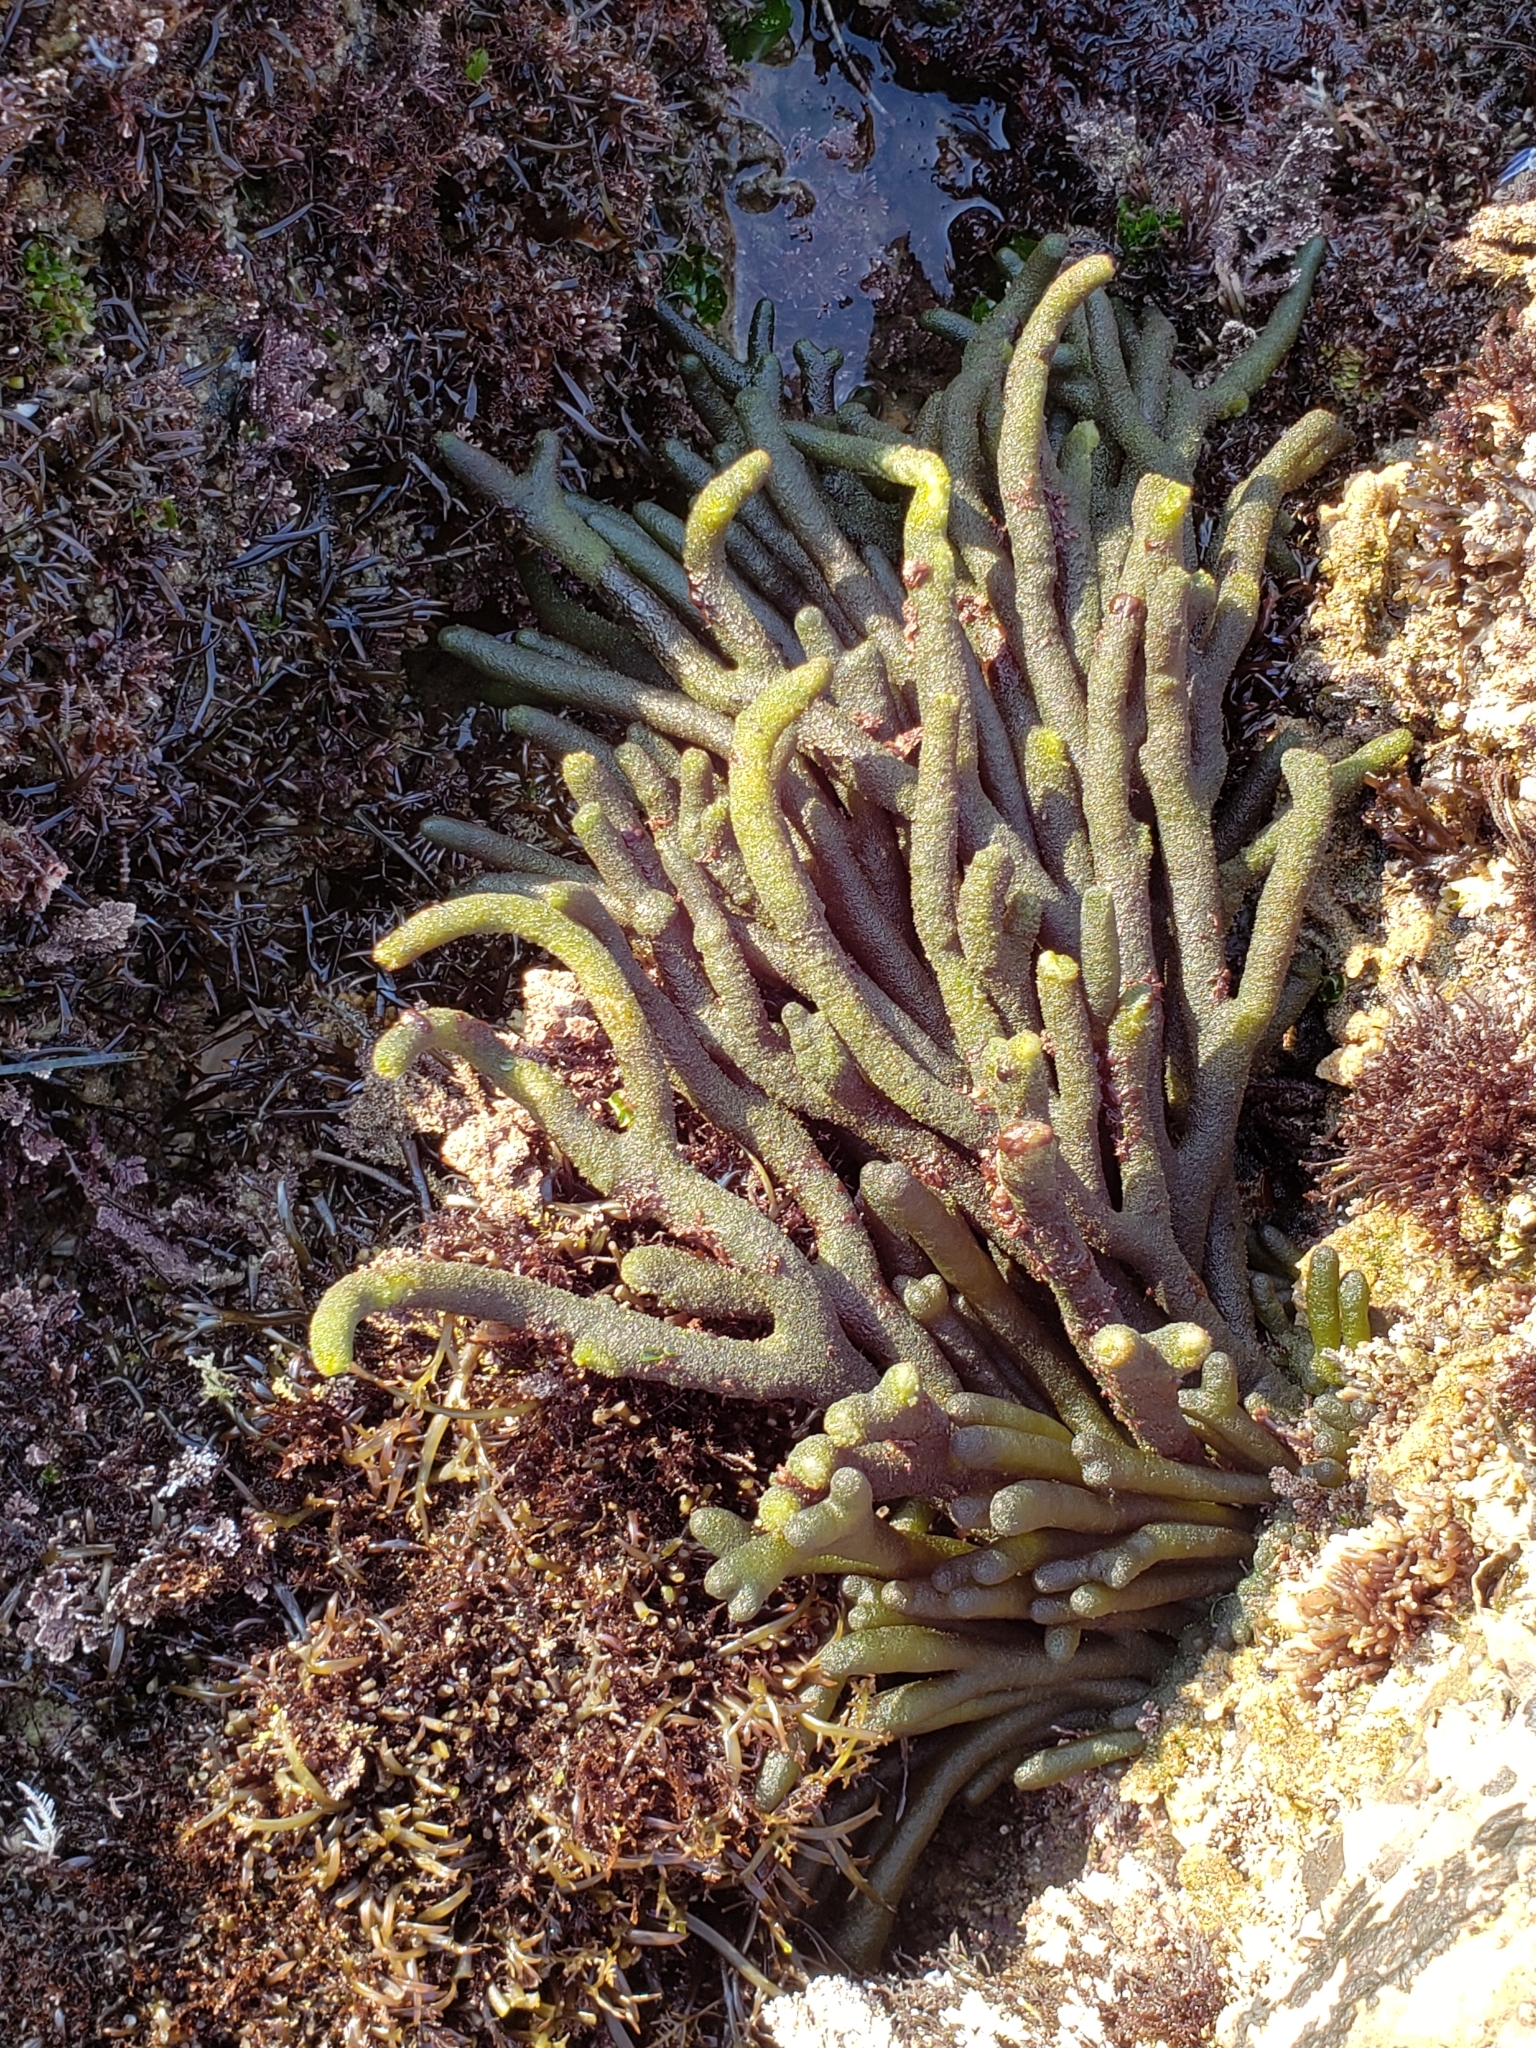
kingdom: Plantae
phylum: Chlorophyta
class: Ulvophyceae
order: Bryopsidales
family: Codiaceae
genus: Codium
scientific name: Codium fragile
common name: Dead man's fingers
